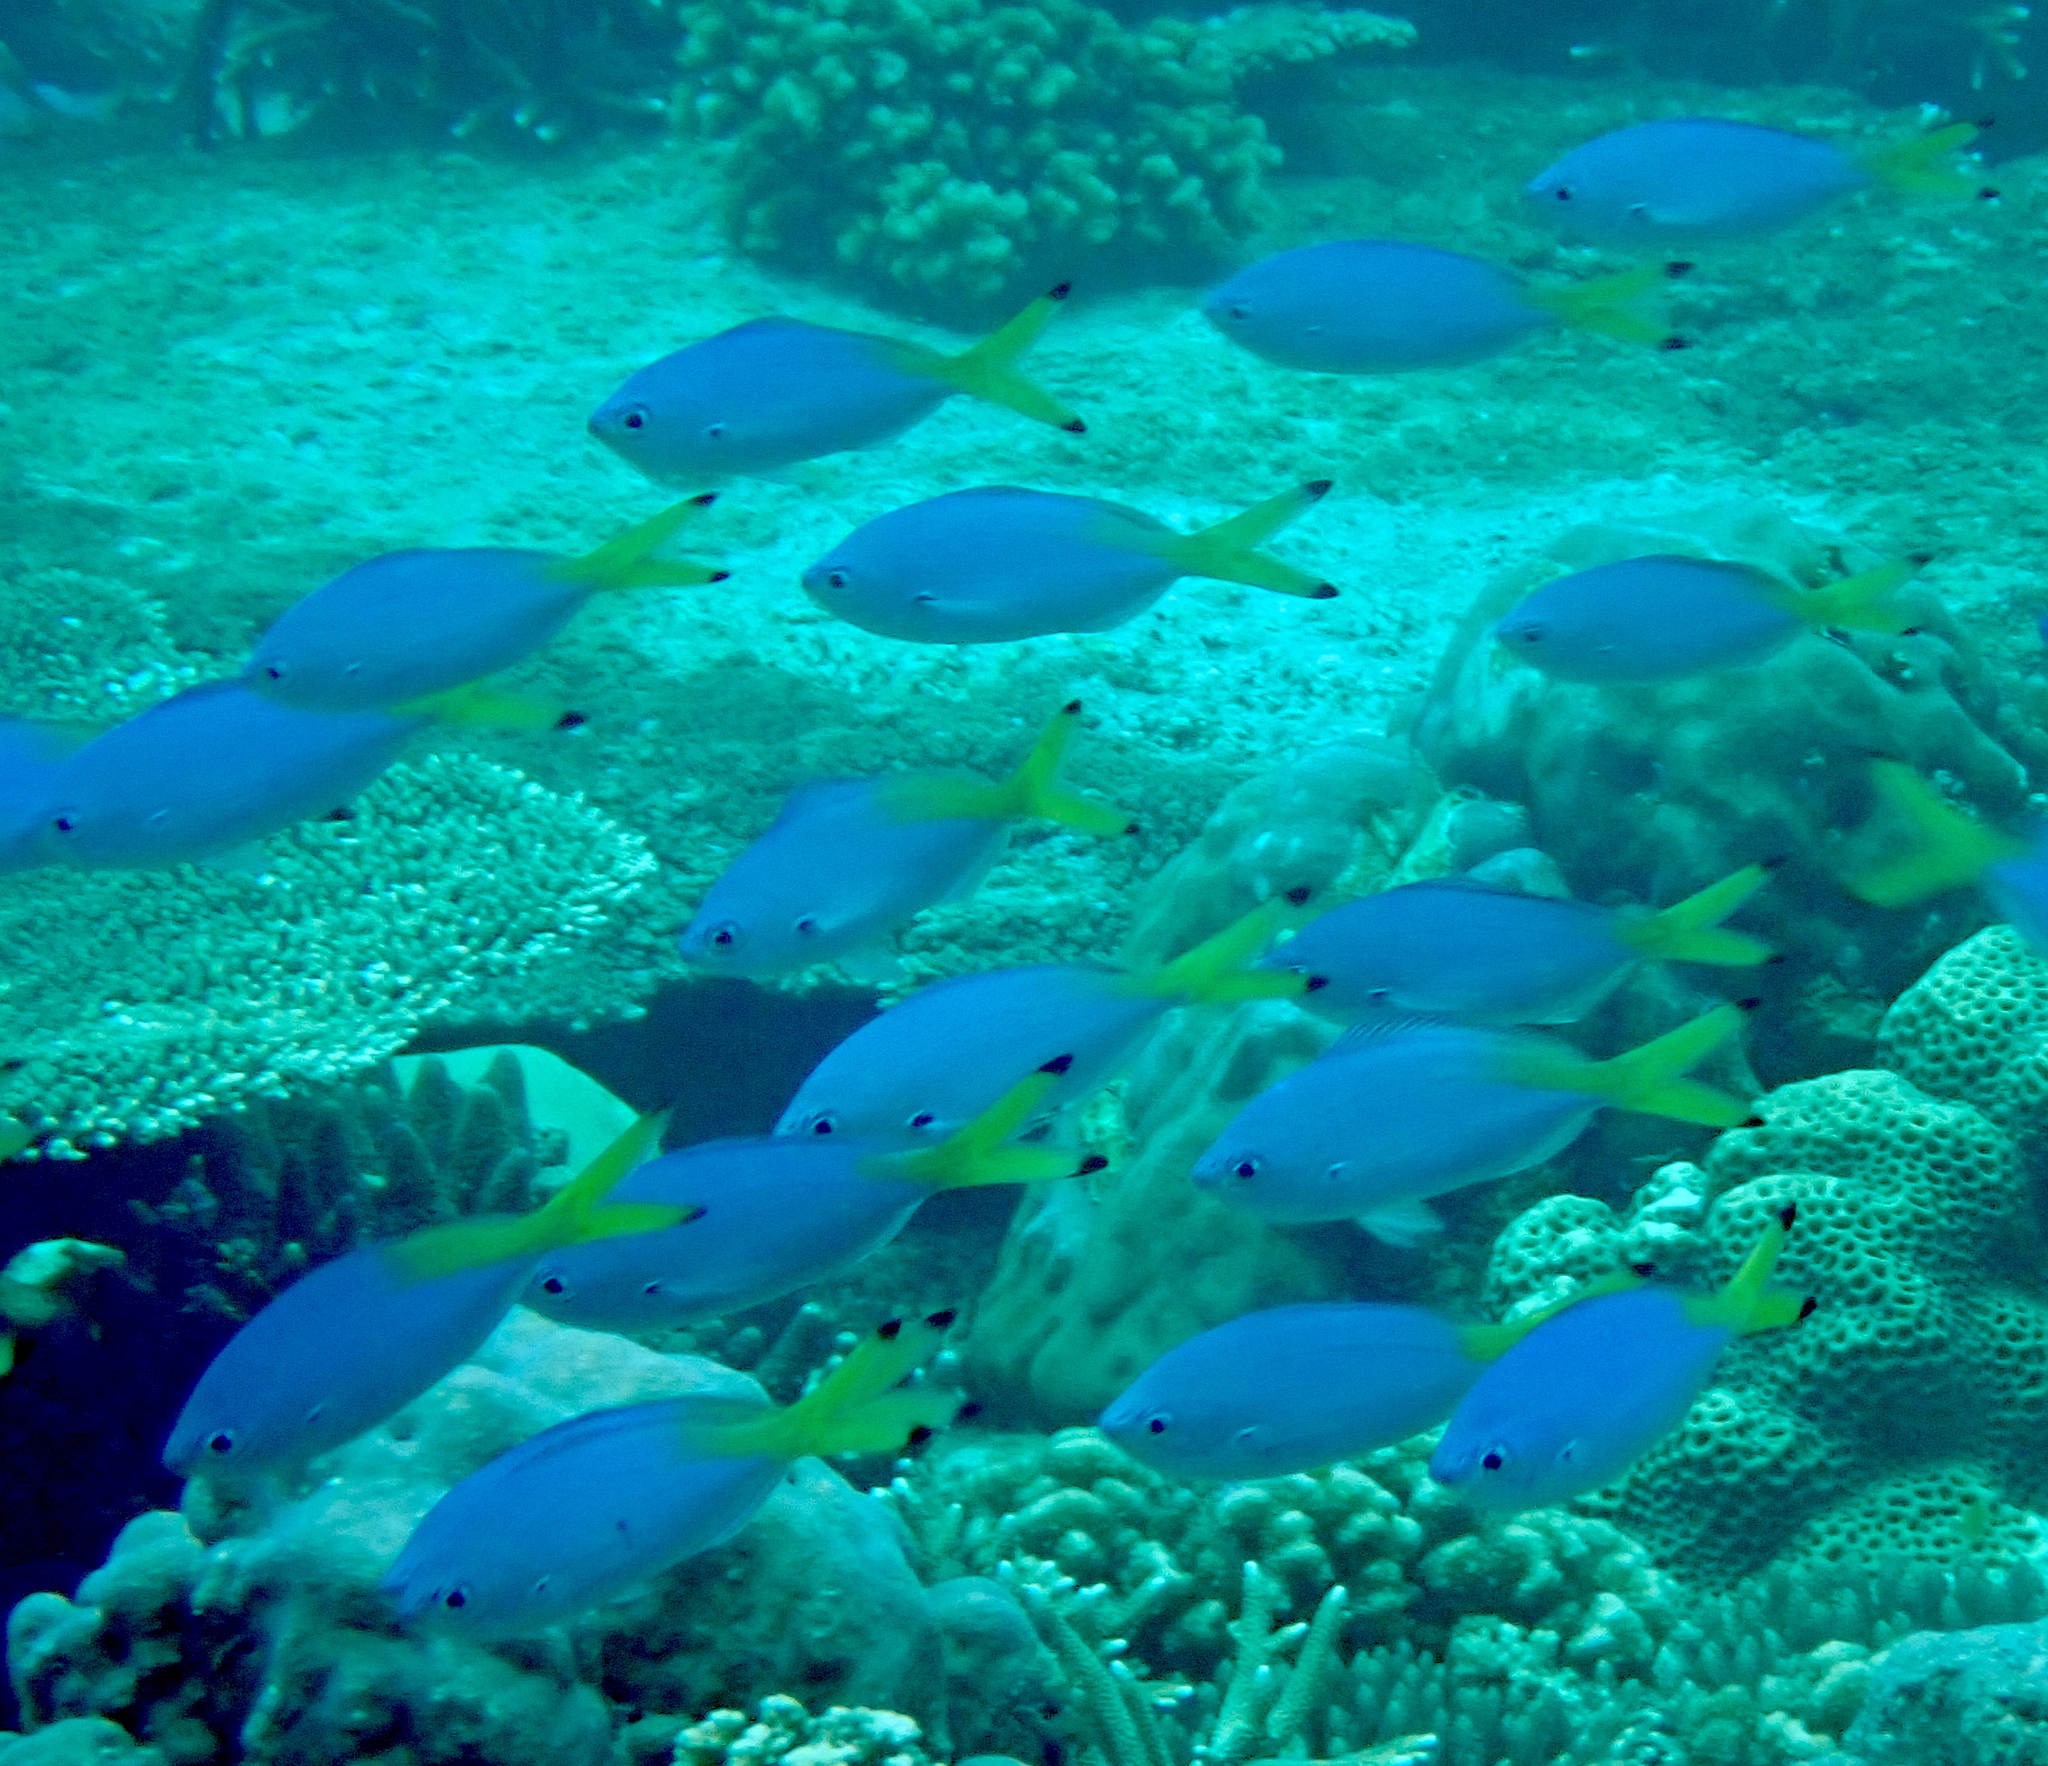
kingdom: Animalia
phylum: Chordata
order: Perciformes
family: Caesionidae
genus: Caesio
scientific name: Caesio lunaris
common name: Blue fusilier
